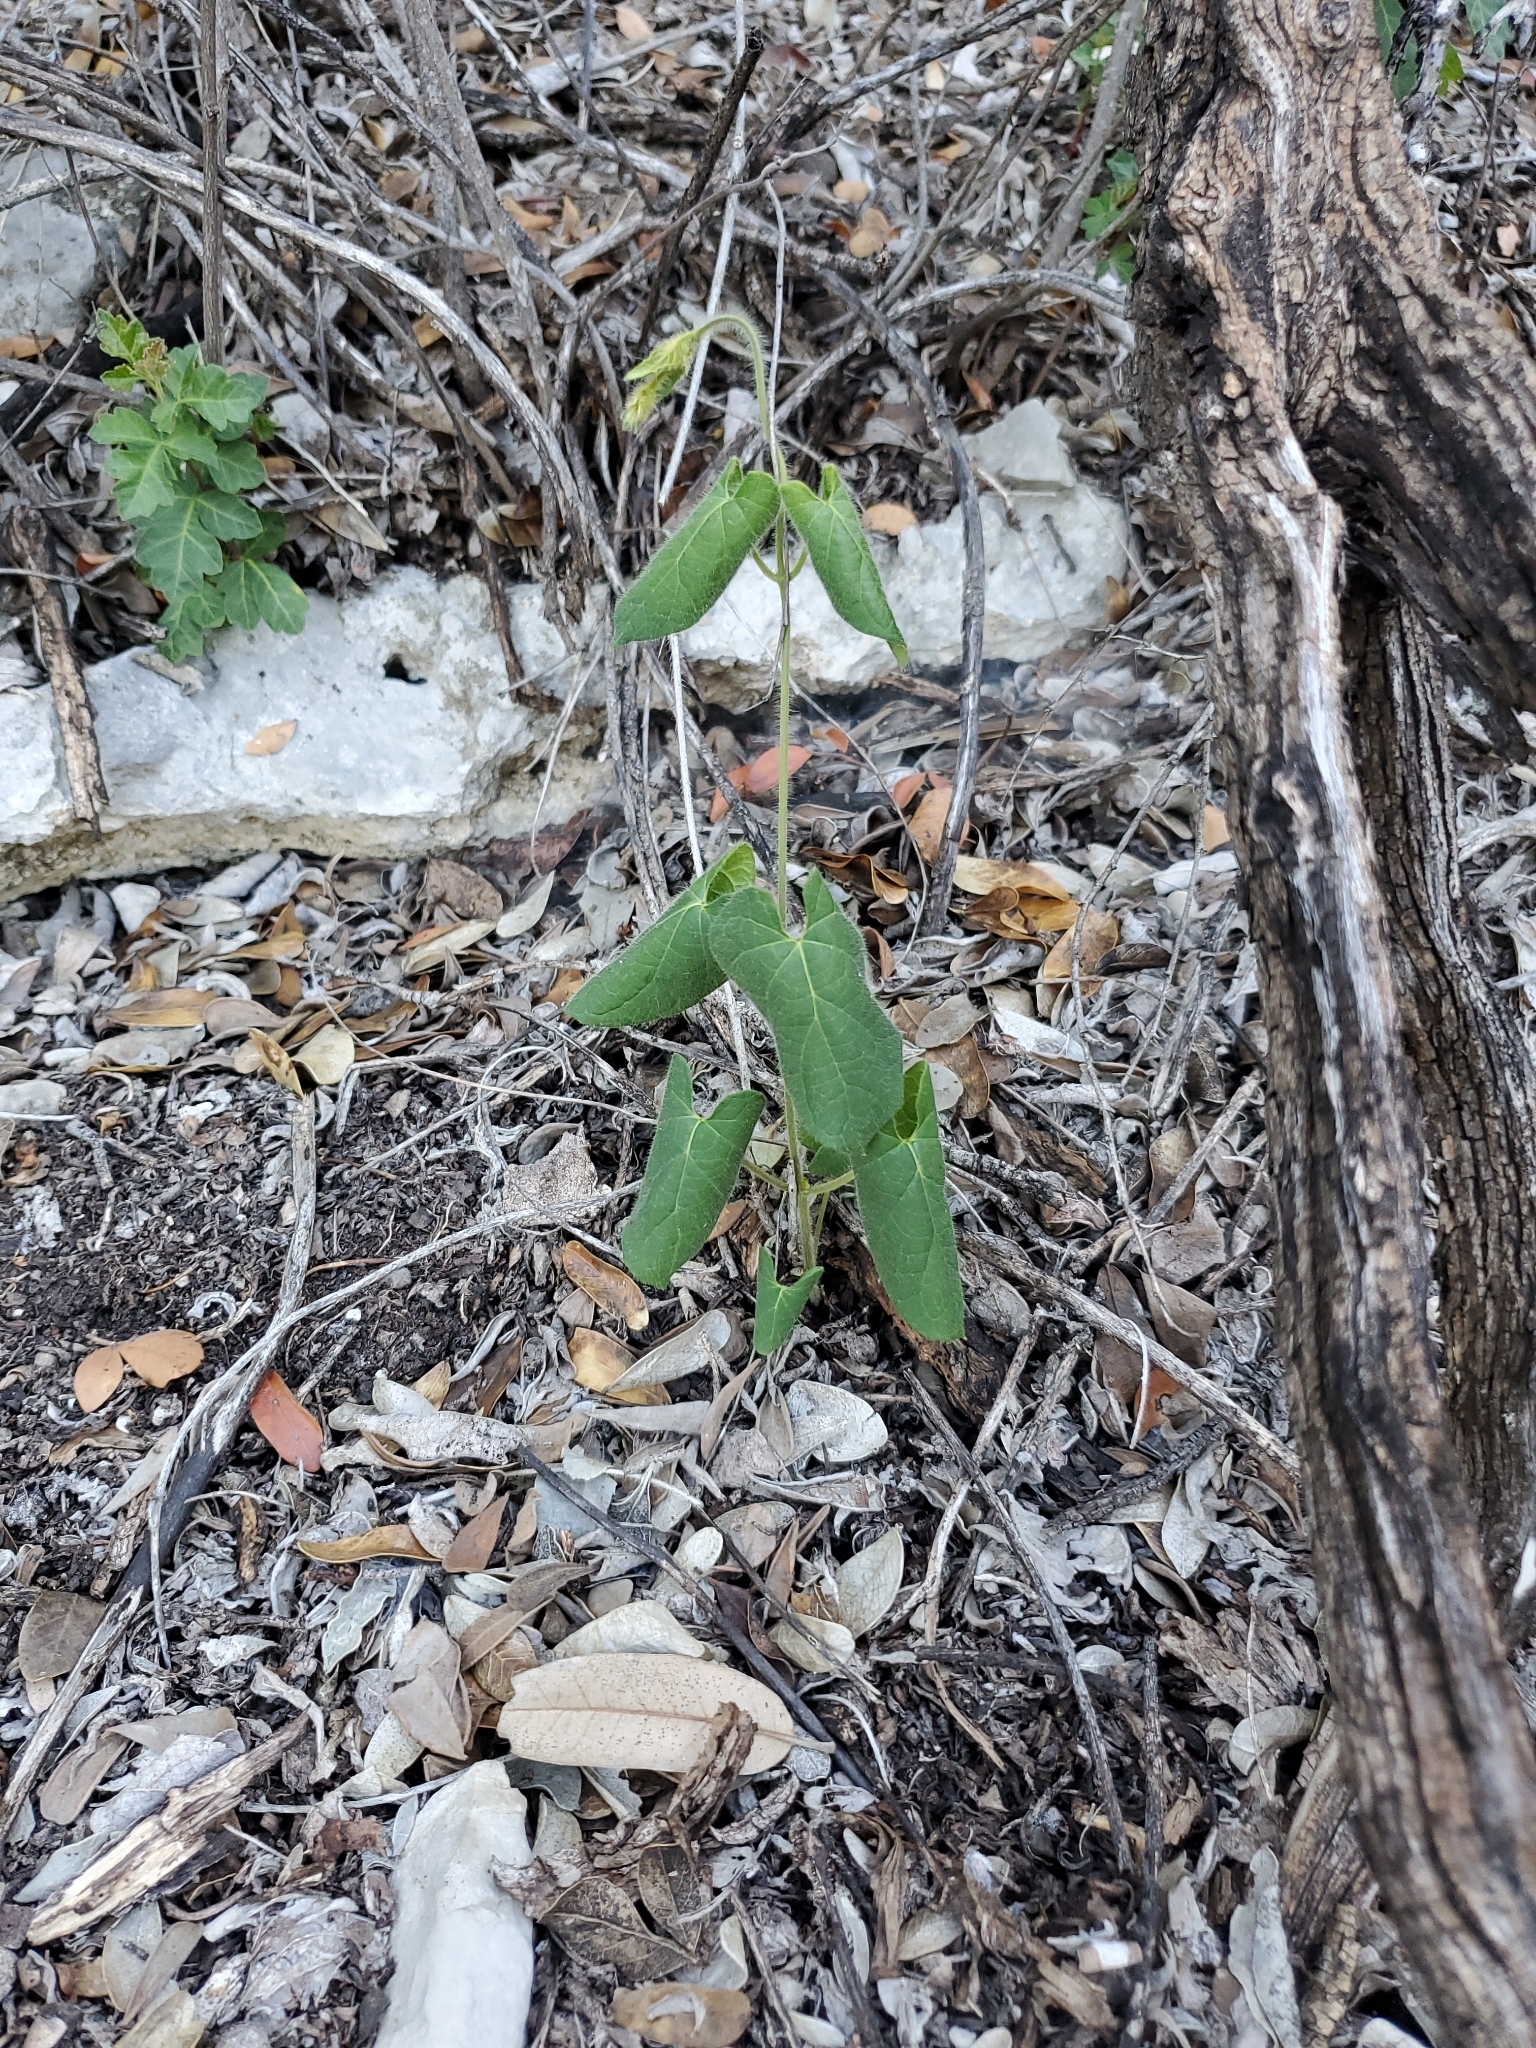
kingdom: Plantae
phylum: Tracheophyta
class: Magnoliopsida
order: Gentianales
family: Apocynaceae
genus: Dictyanthus
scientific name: Dictyanthus reticulatus
